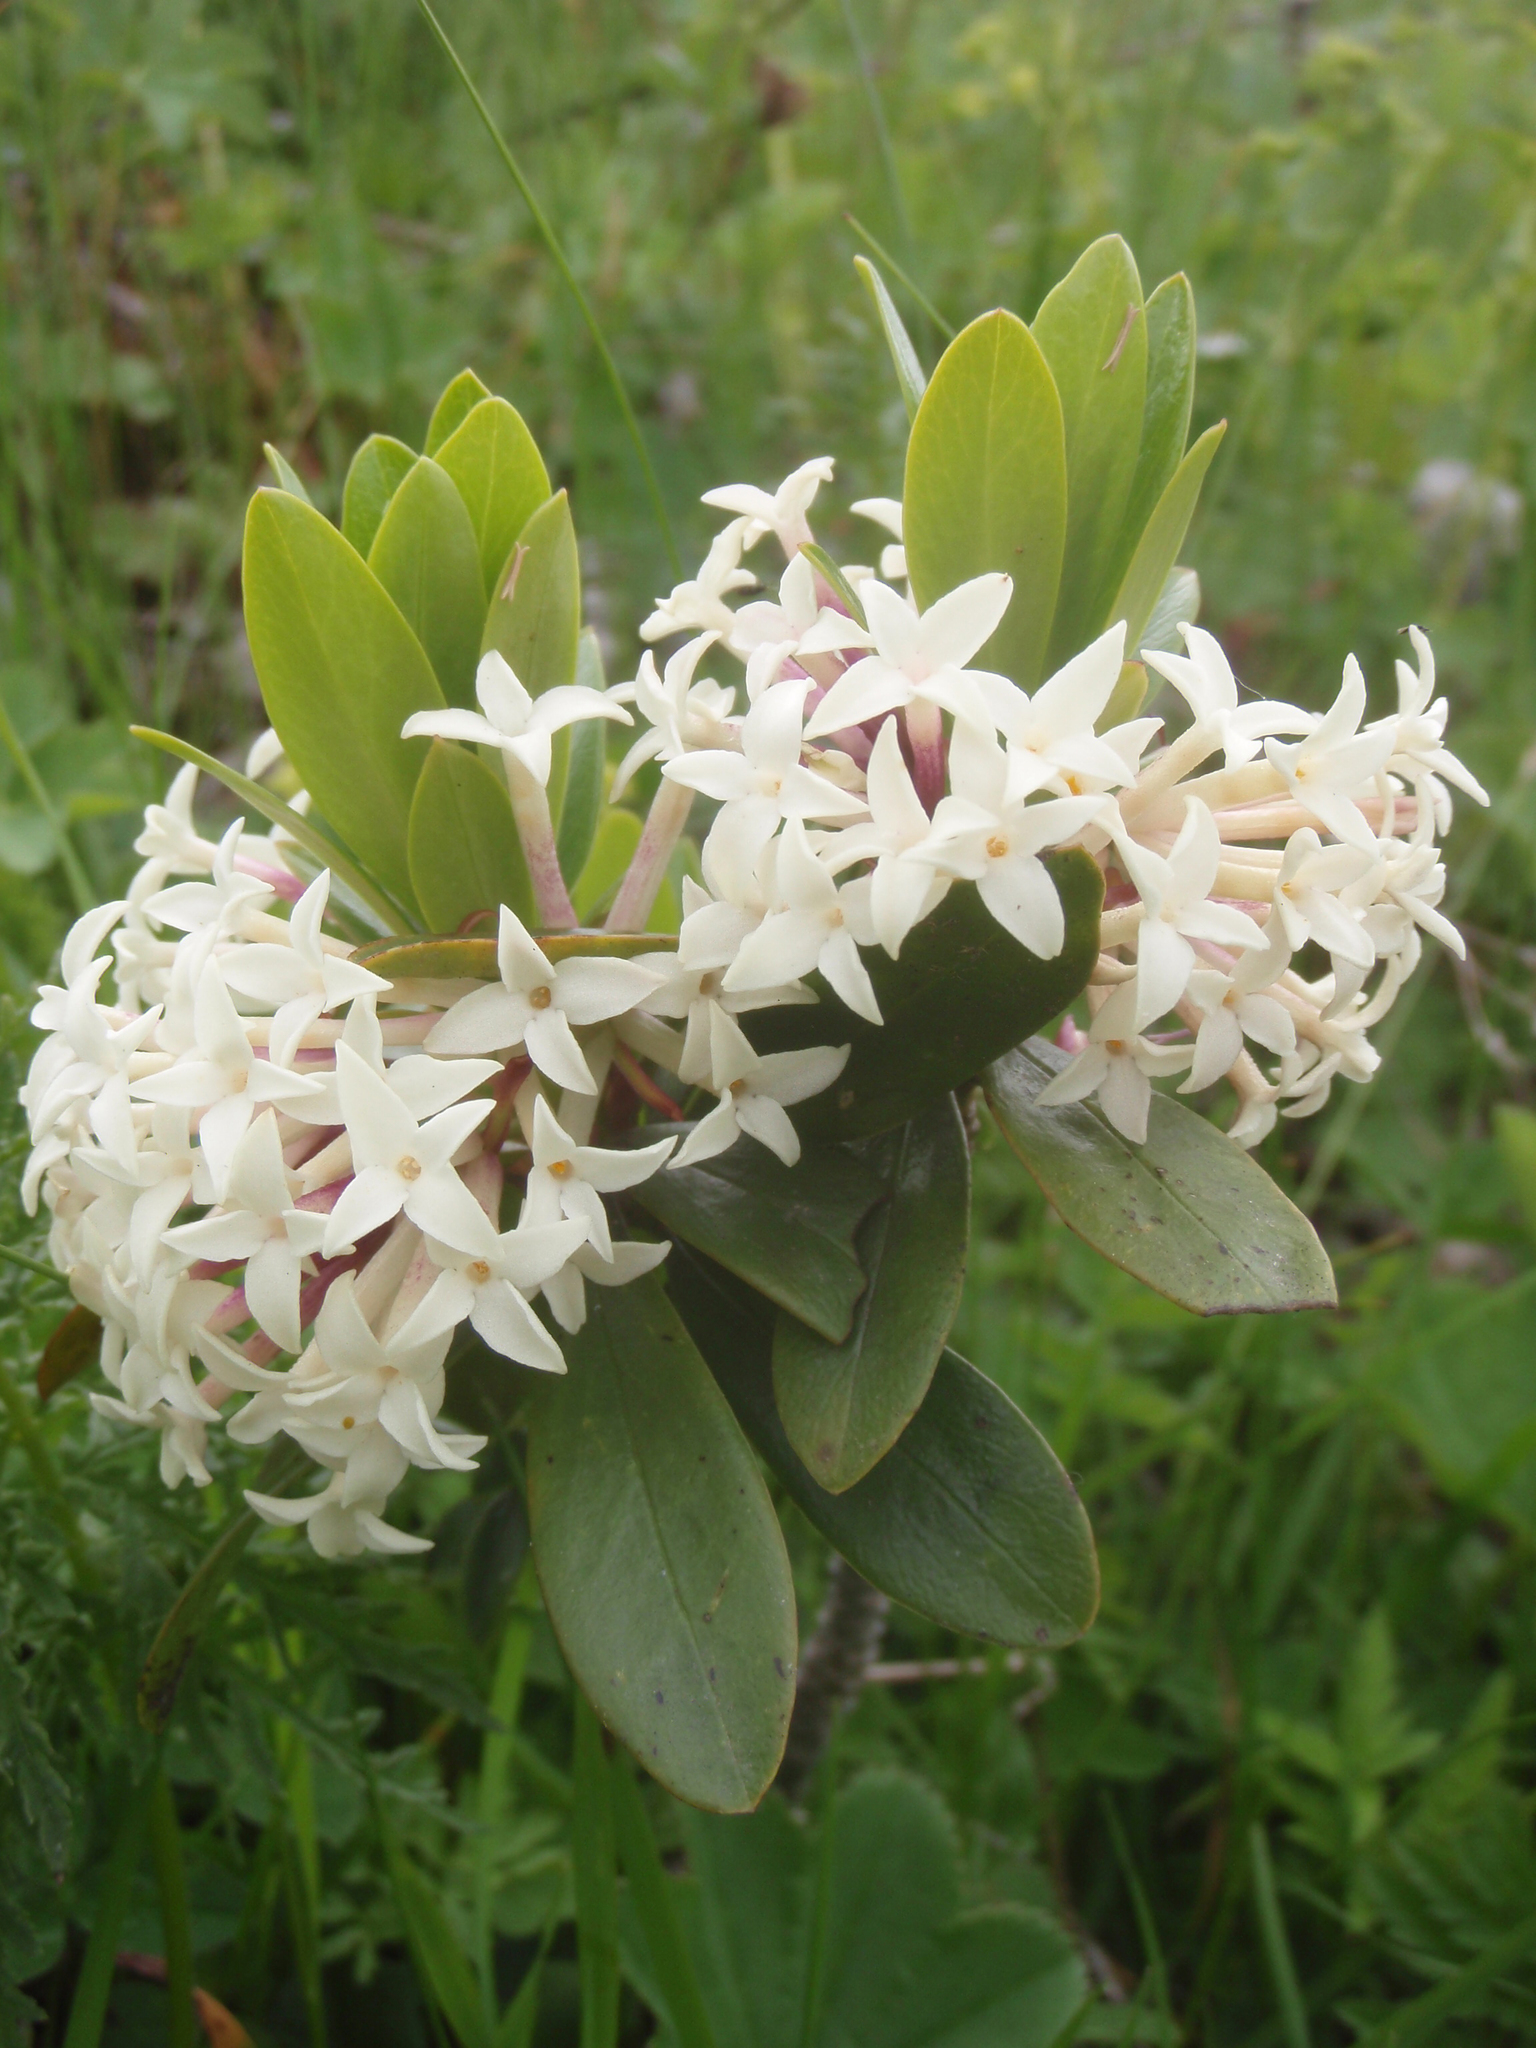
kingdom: Plantae
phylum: Tracheophyta
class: Magnoliopsida
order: Malvales
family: Thymelaeaceae
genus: Daphne
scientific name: Daphne glomerata
